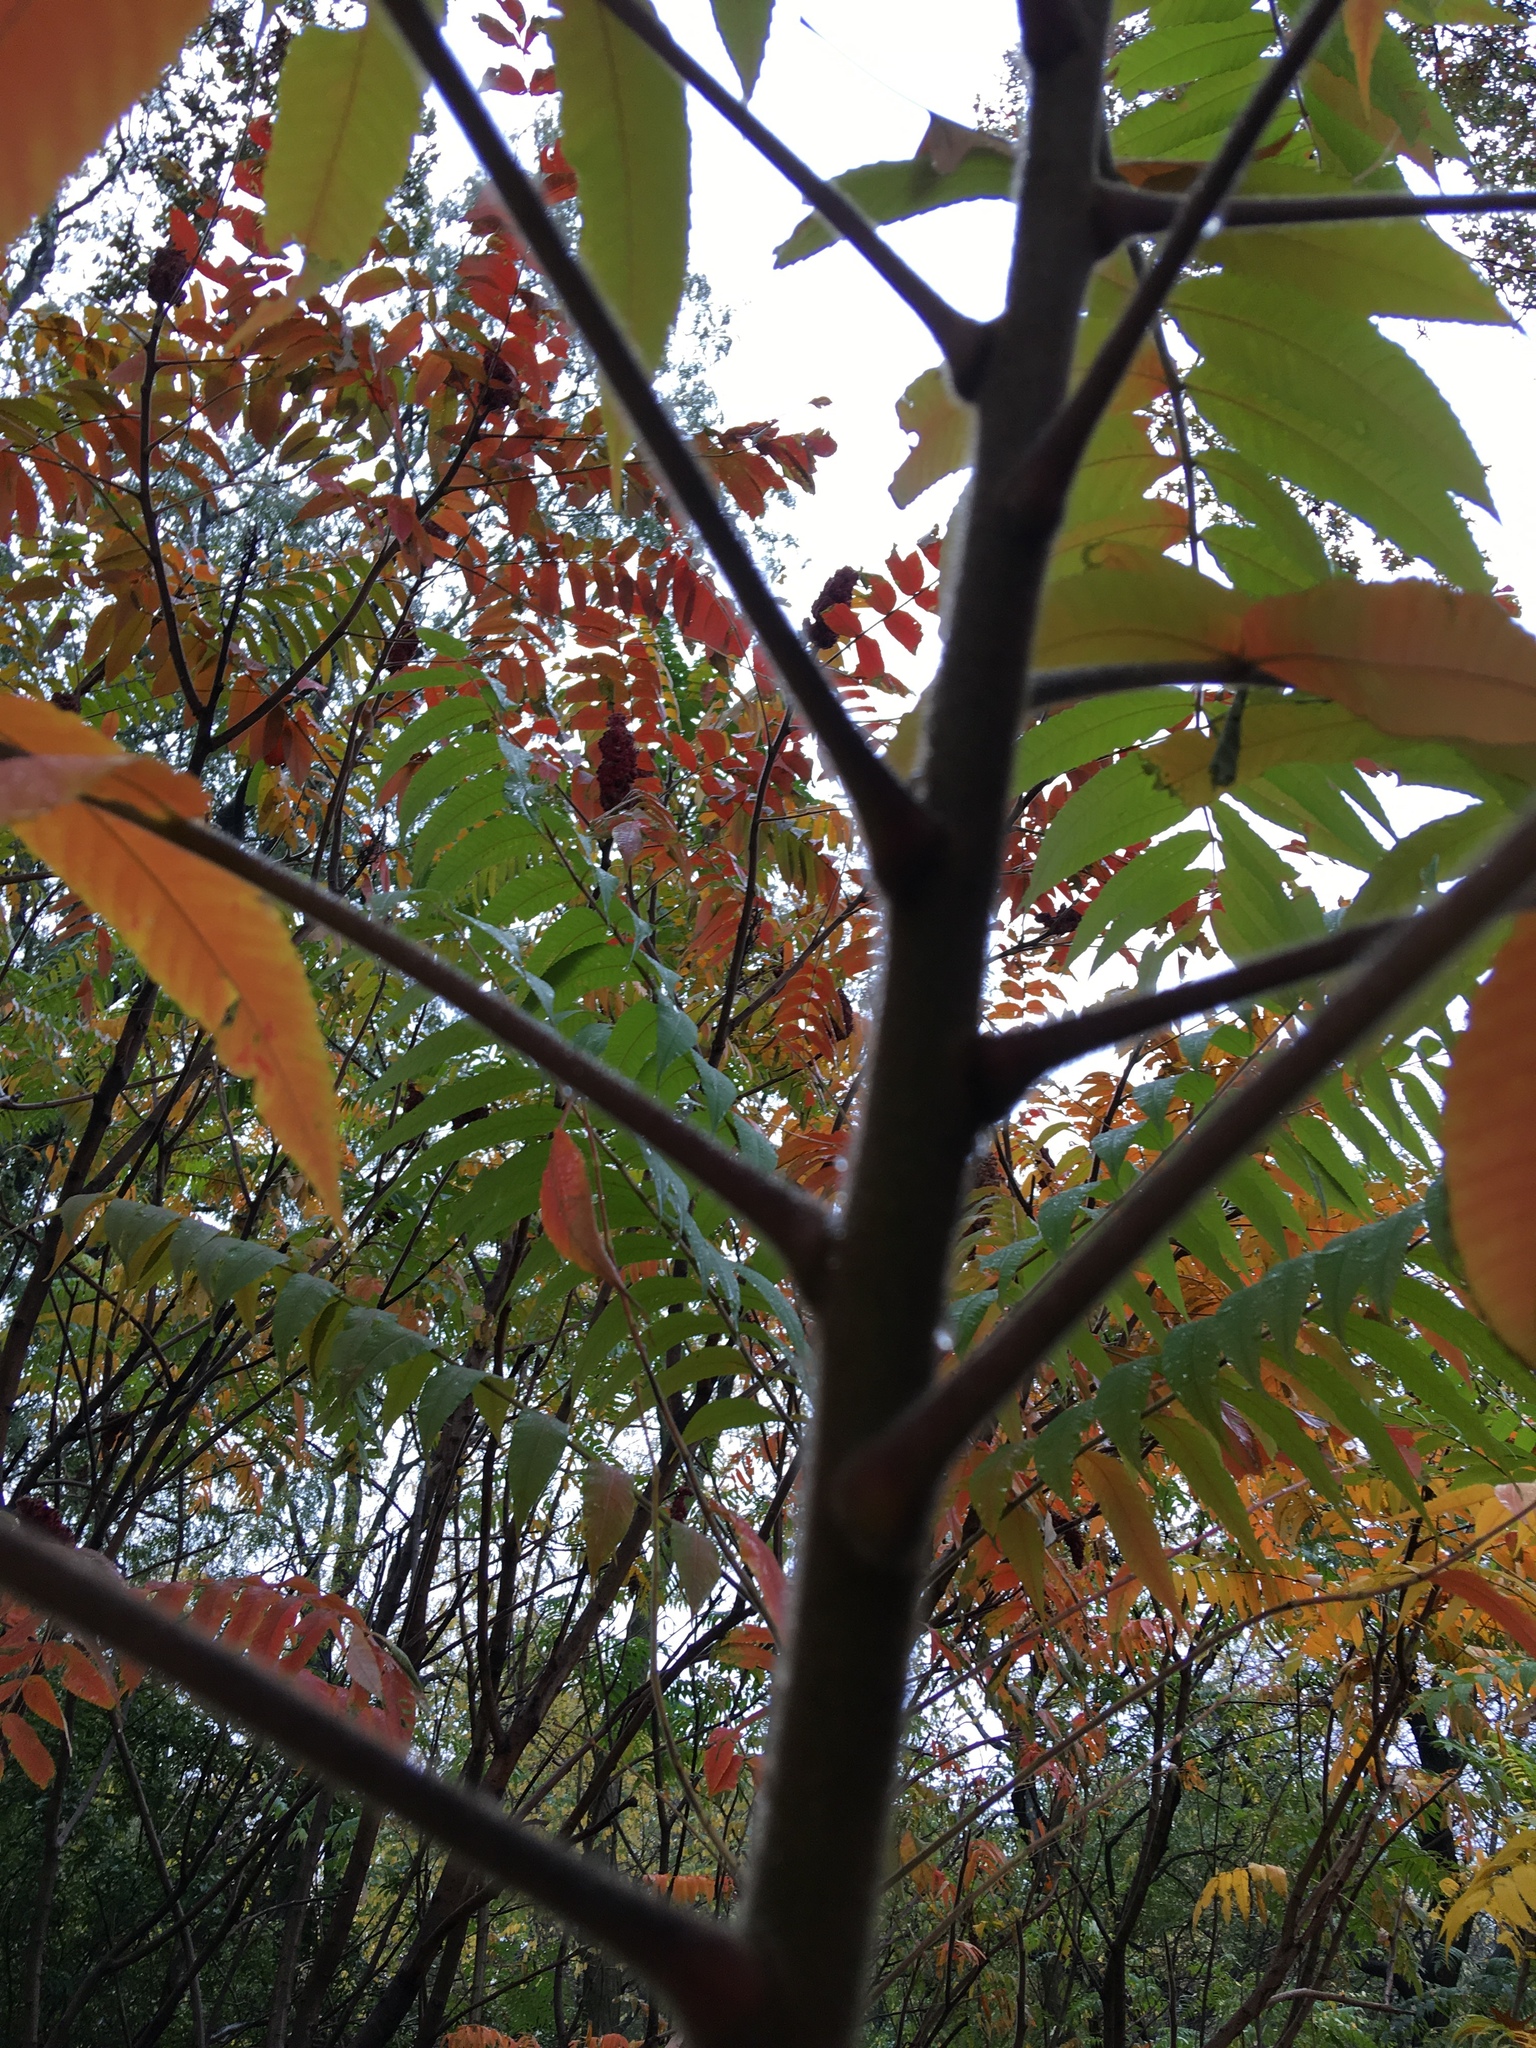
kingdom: Plantae
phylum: Tracheophyta
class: Magnoliopsida
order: Sapindales
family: Anacardiaceae
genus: Rhus
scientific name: Rhus typhina
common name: Staghorn sumac
